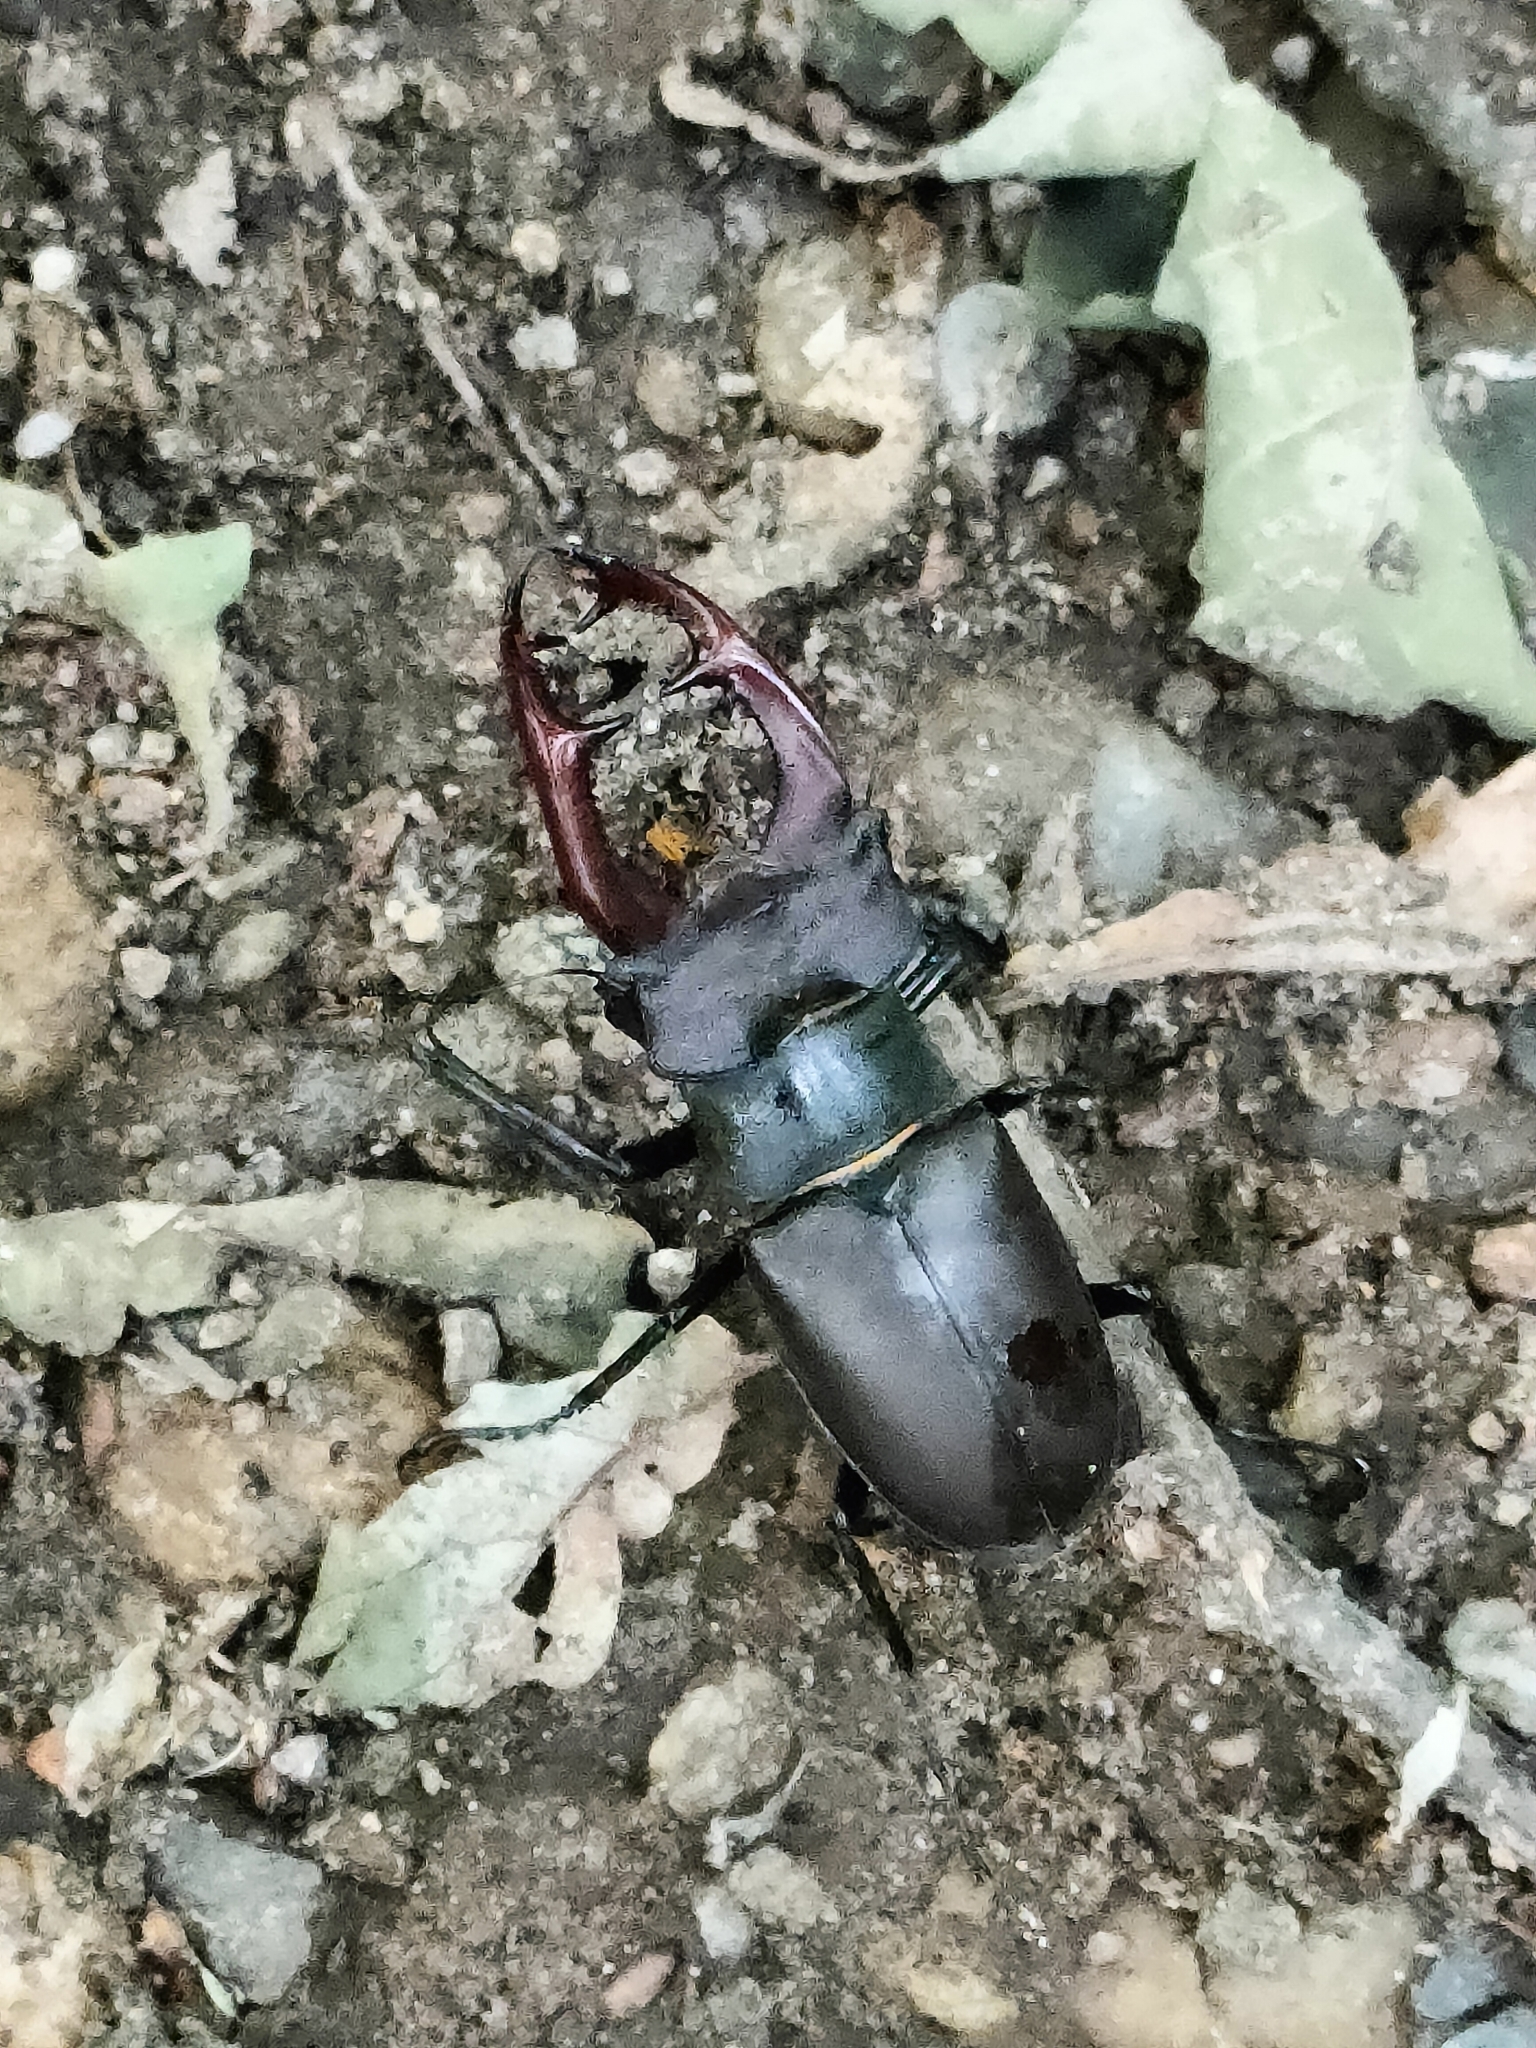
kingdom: Animalia
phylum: Arthropoda
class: Insecta
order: Coleoptera
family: Lucanidae
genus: Lucanus
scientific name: Lucanus cervus
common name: Stag beetle
